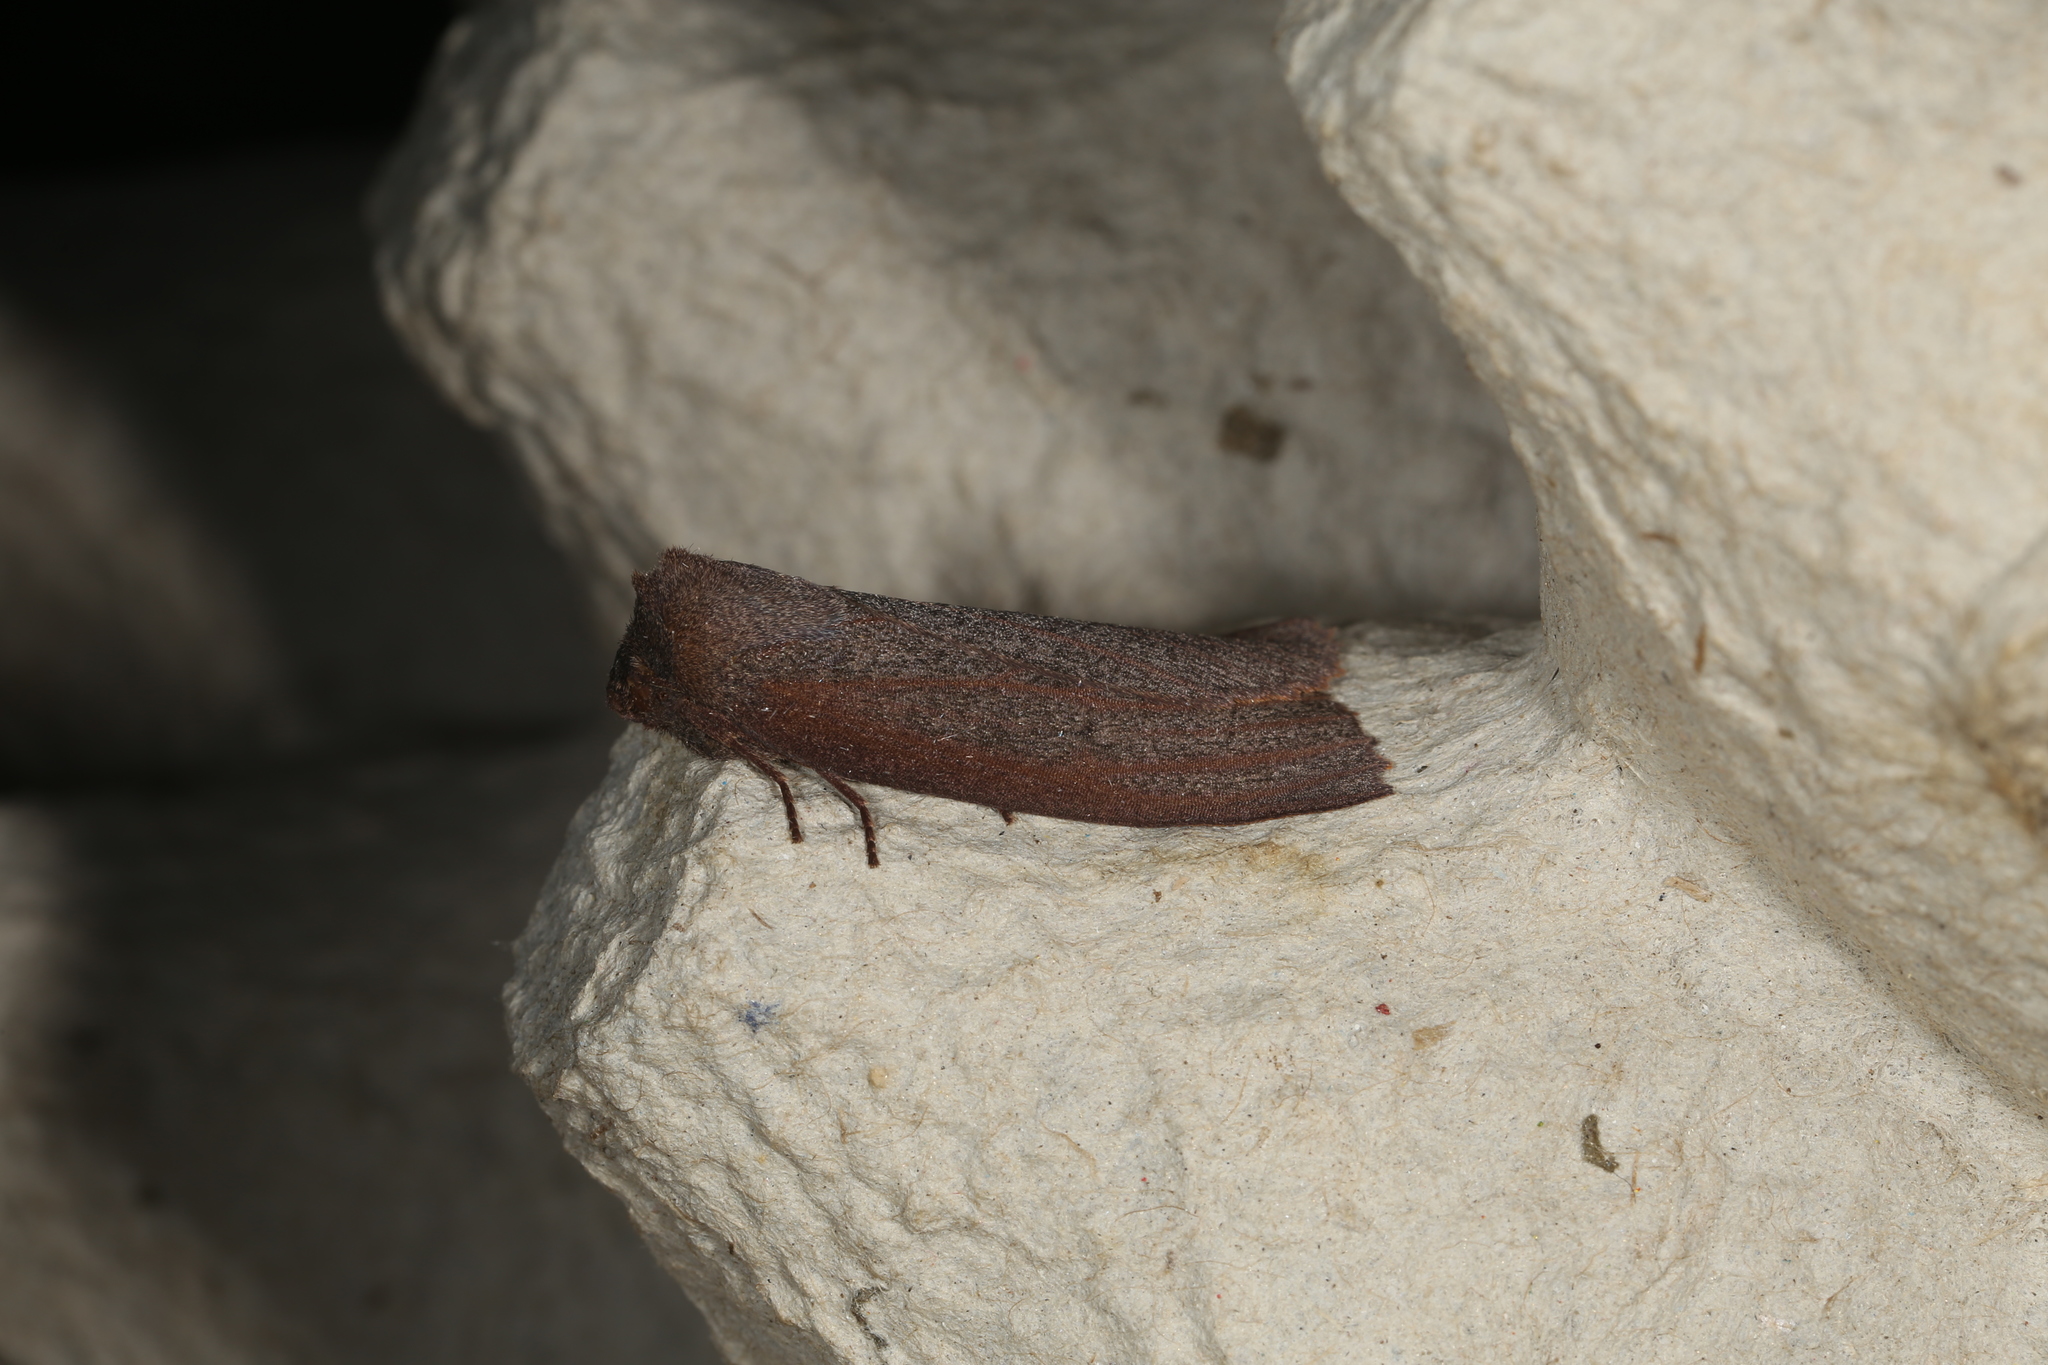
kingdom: Animalia
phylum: Arthropoda
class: Insecta
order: Lepidoptera
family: Geometridae
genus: Paralaea
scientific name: Paralaea porphyrinaria
